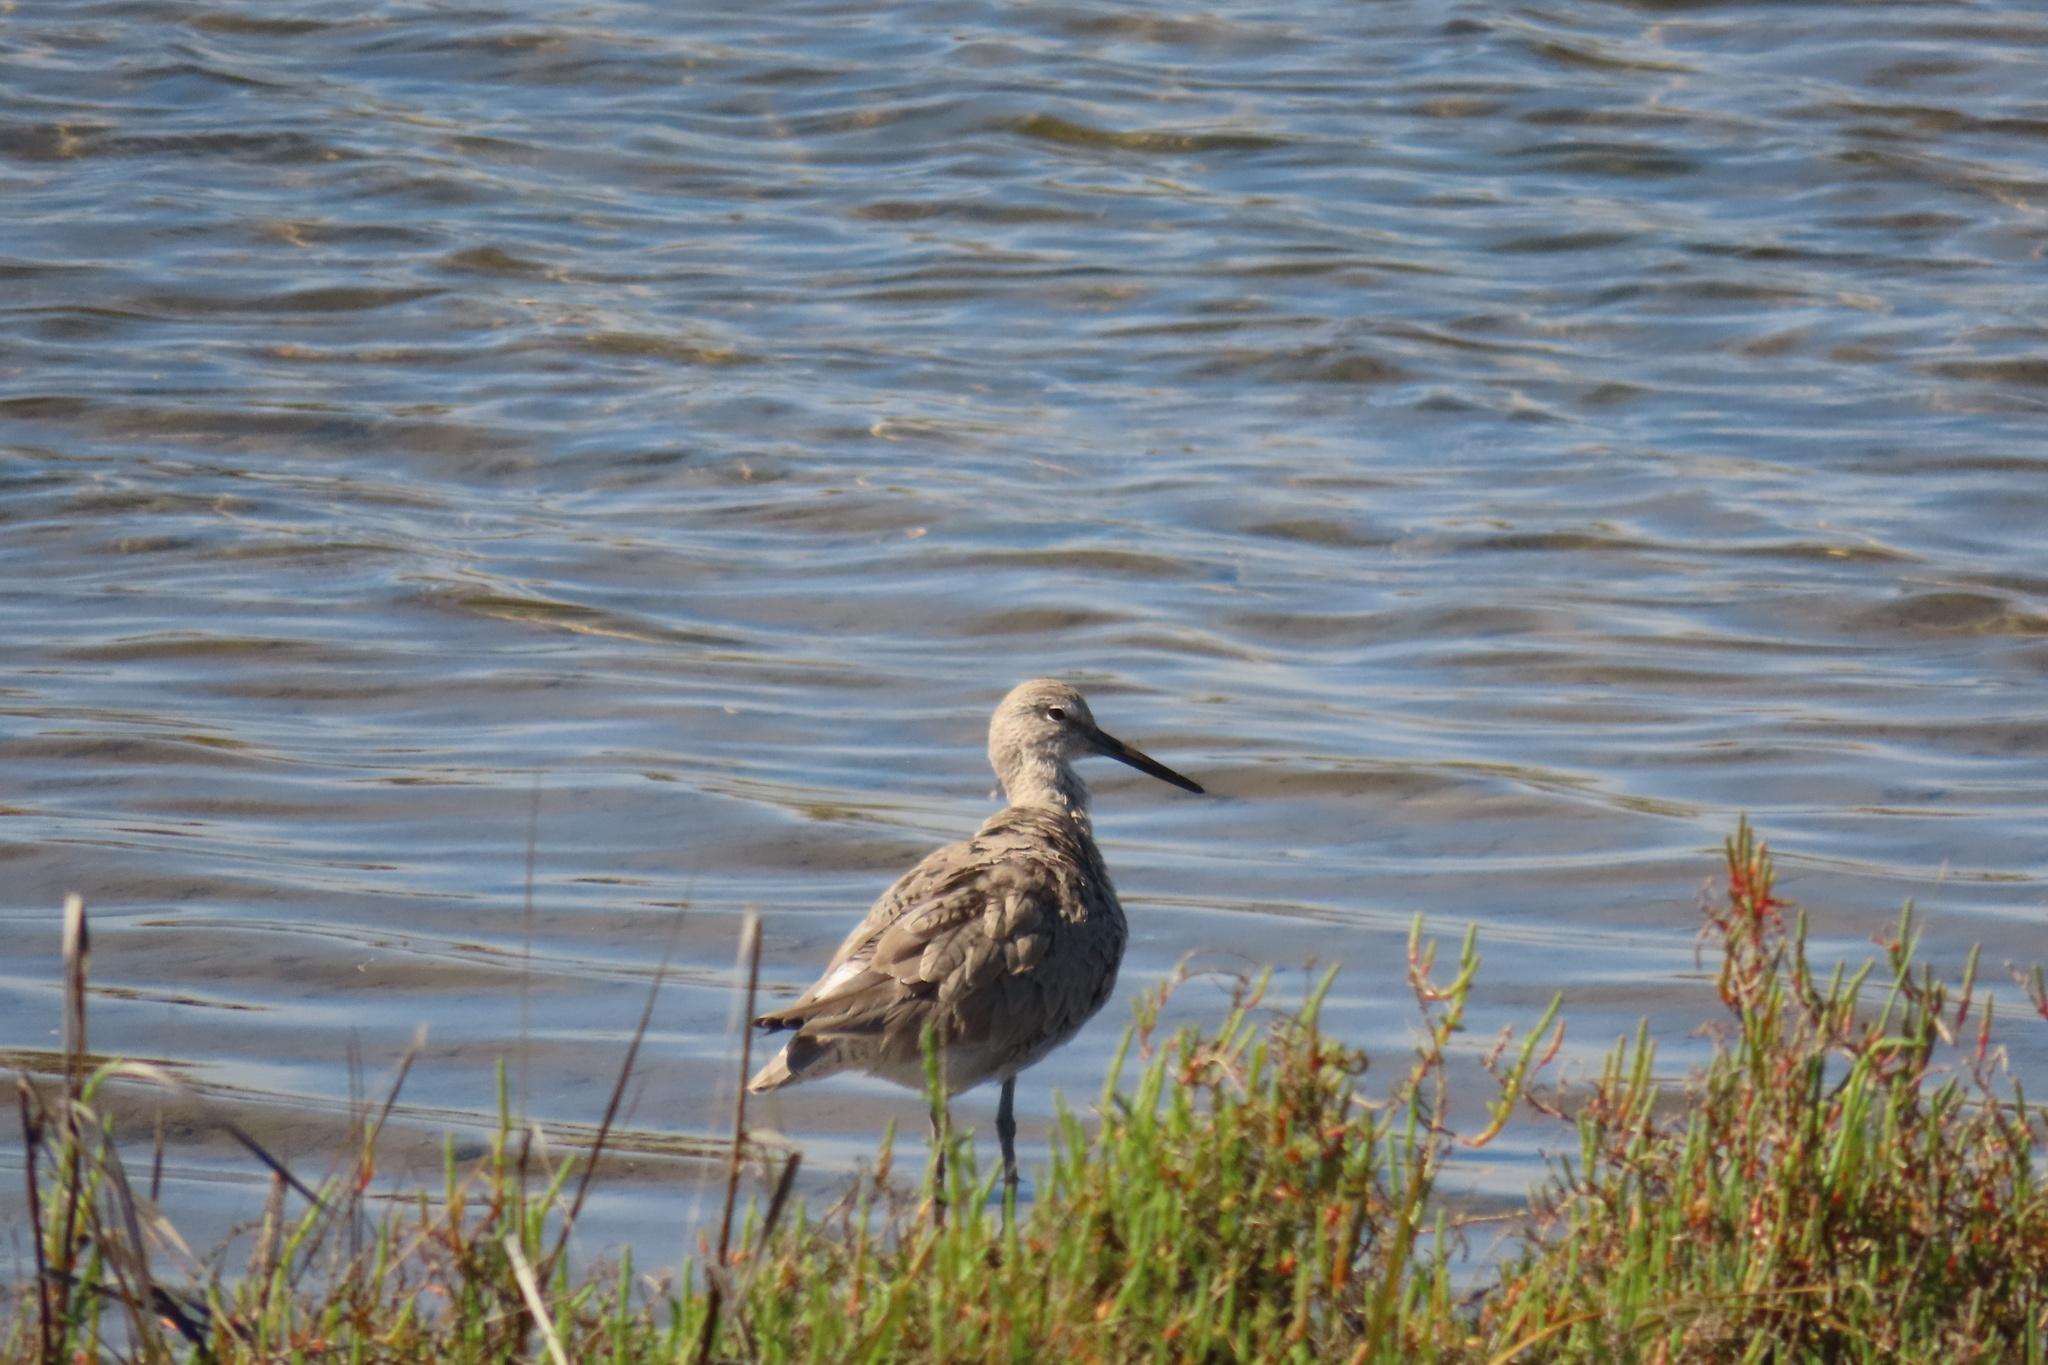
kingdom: Animalia
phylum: Chordata
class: Aves
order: Charadriiformes
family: Scolopacidae
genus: Tringa
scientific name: Tringa semipalmata
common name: Willet
